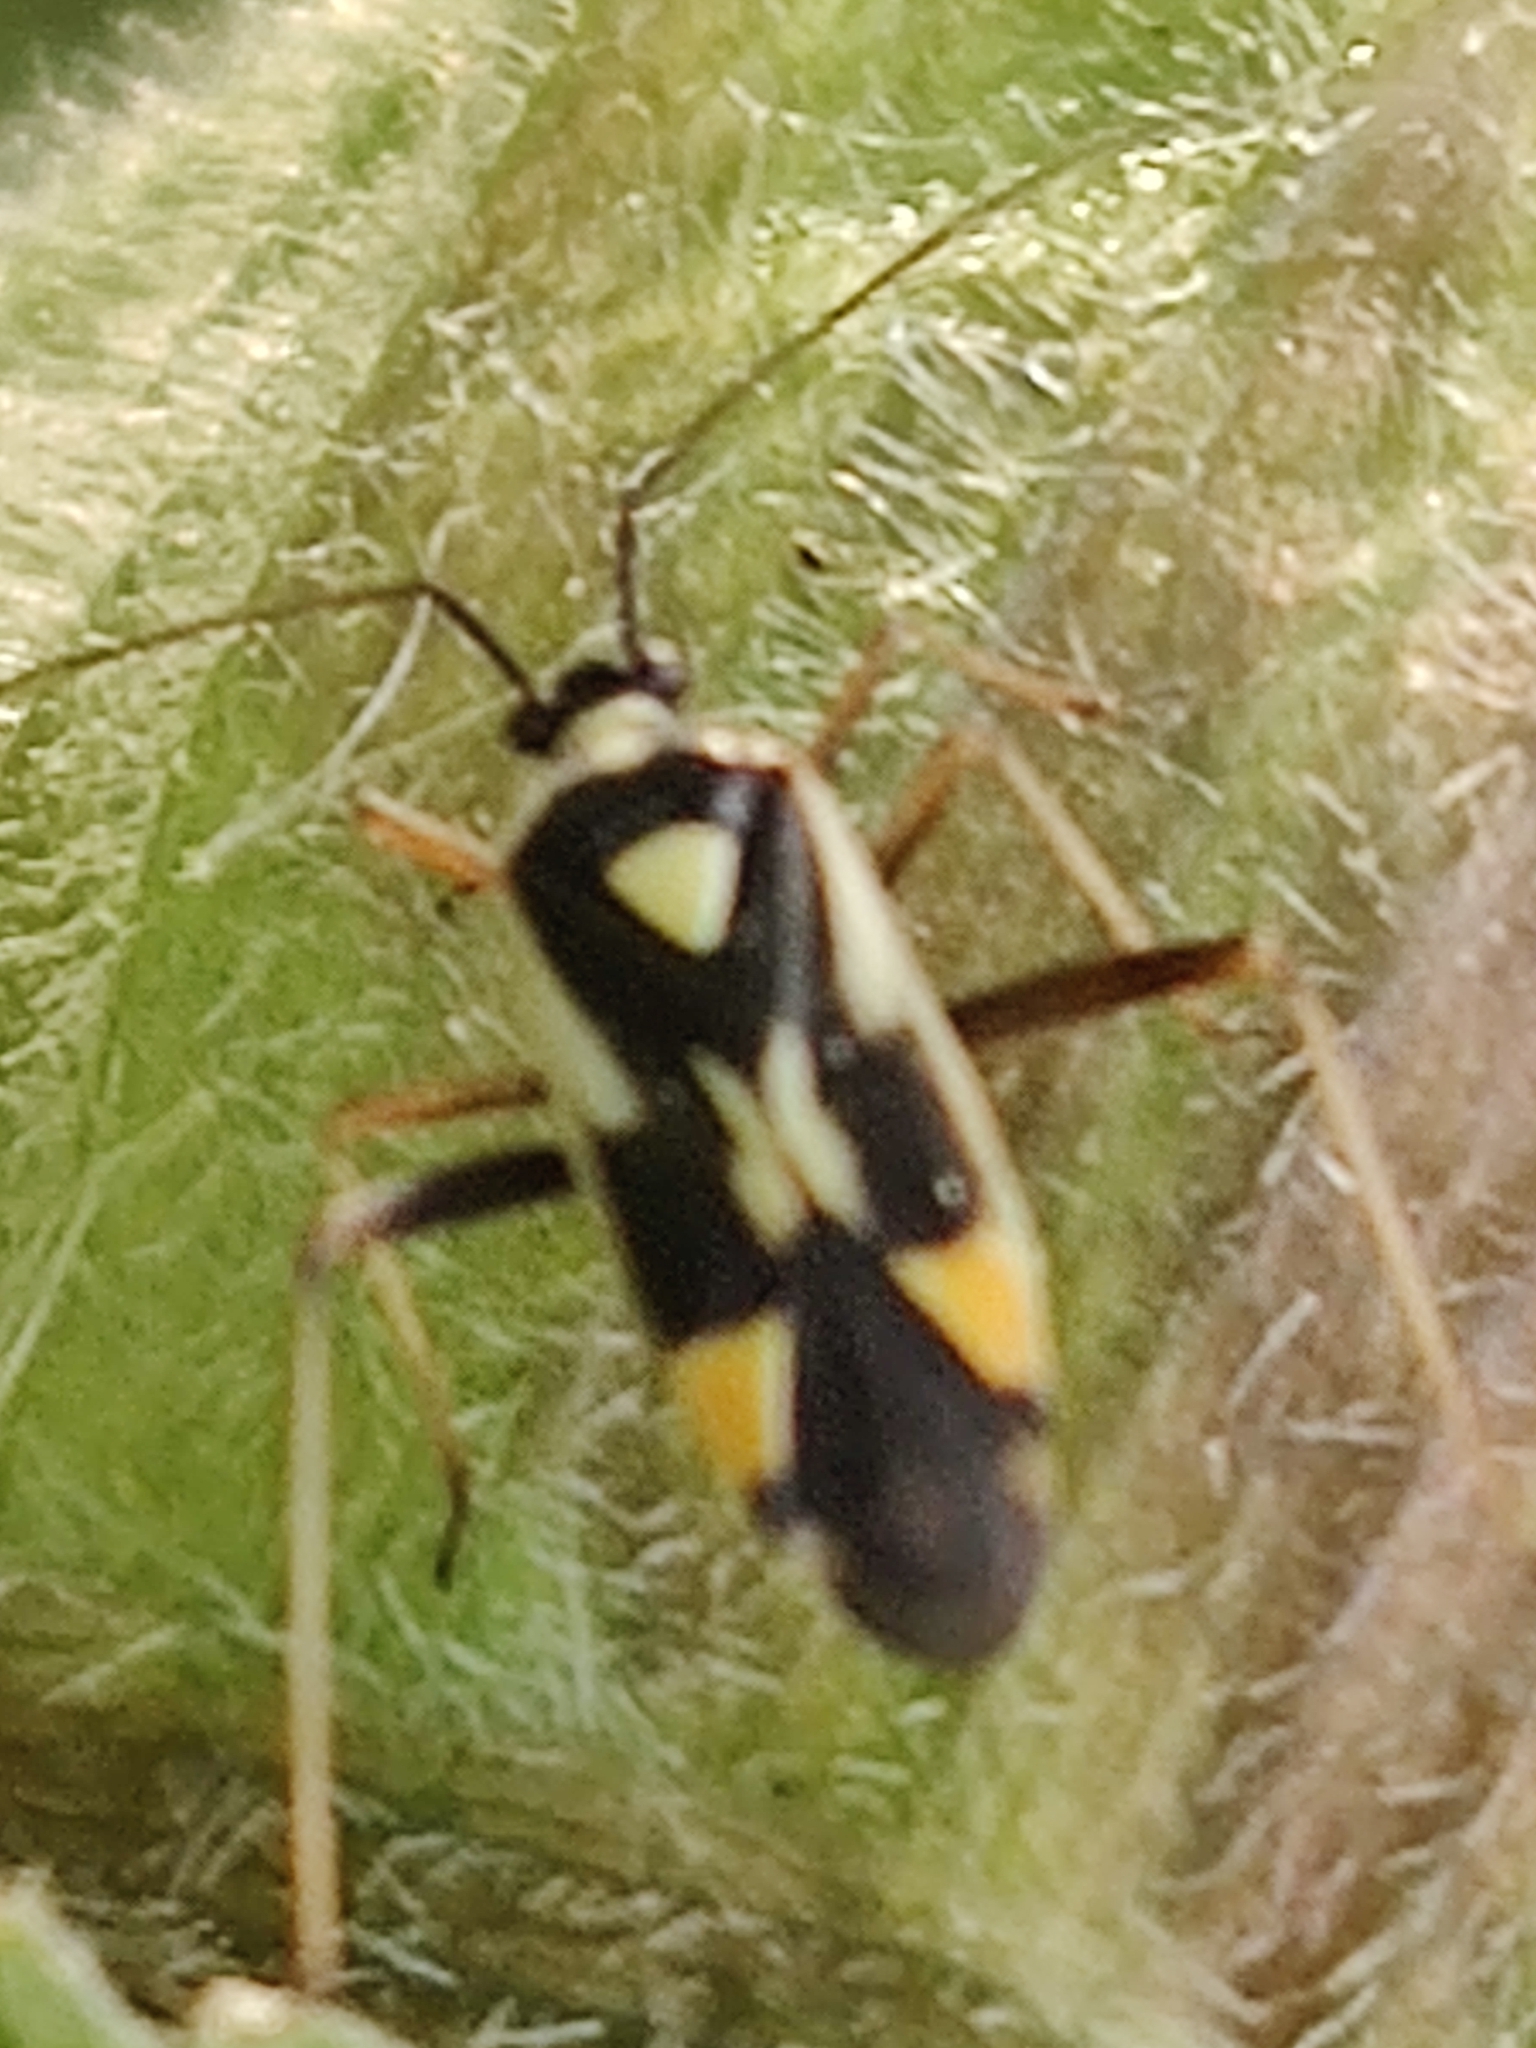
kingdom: Animalia
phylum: Arthropoda
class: Insecta
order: Hemiptera
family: Miridae
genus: Grypocoris
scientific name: Grypocoris stysi
